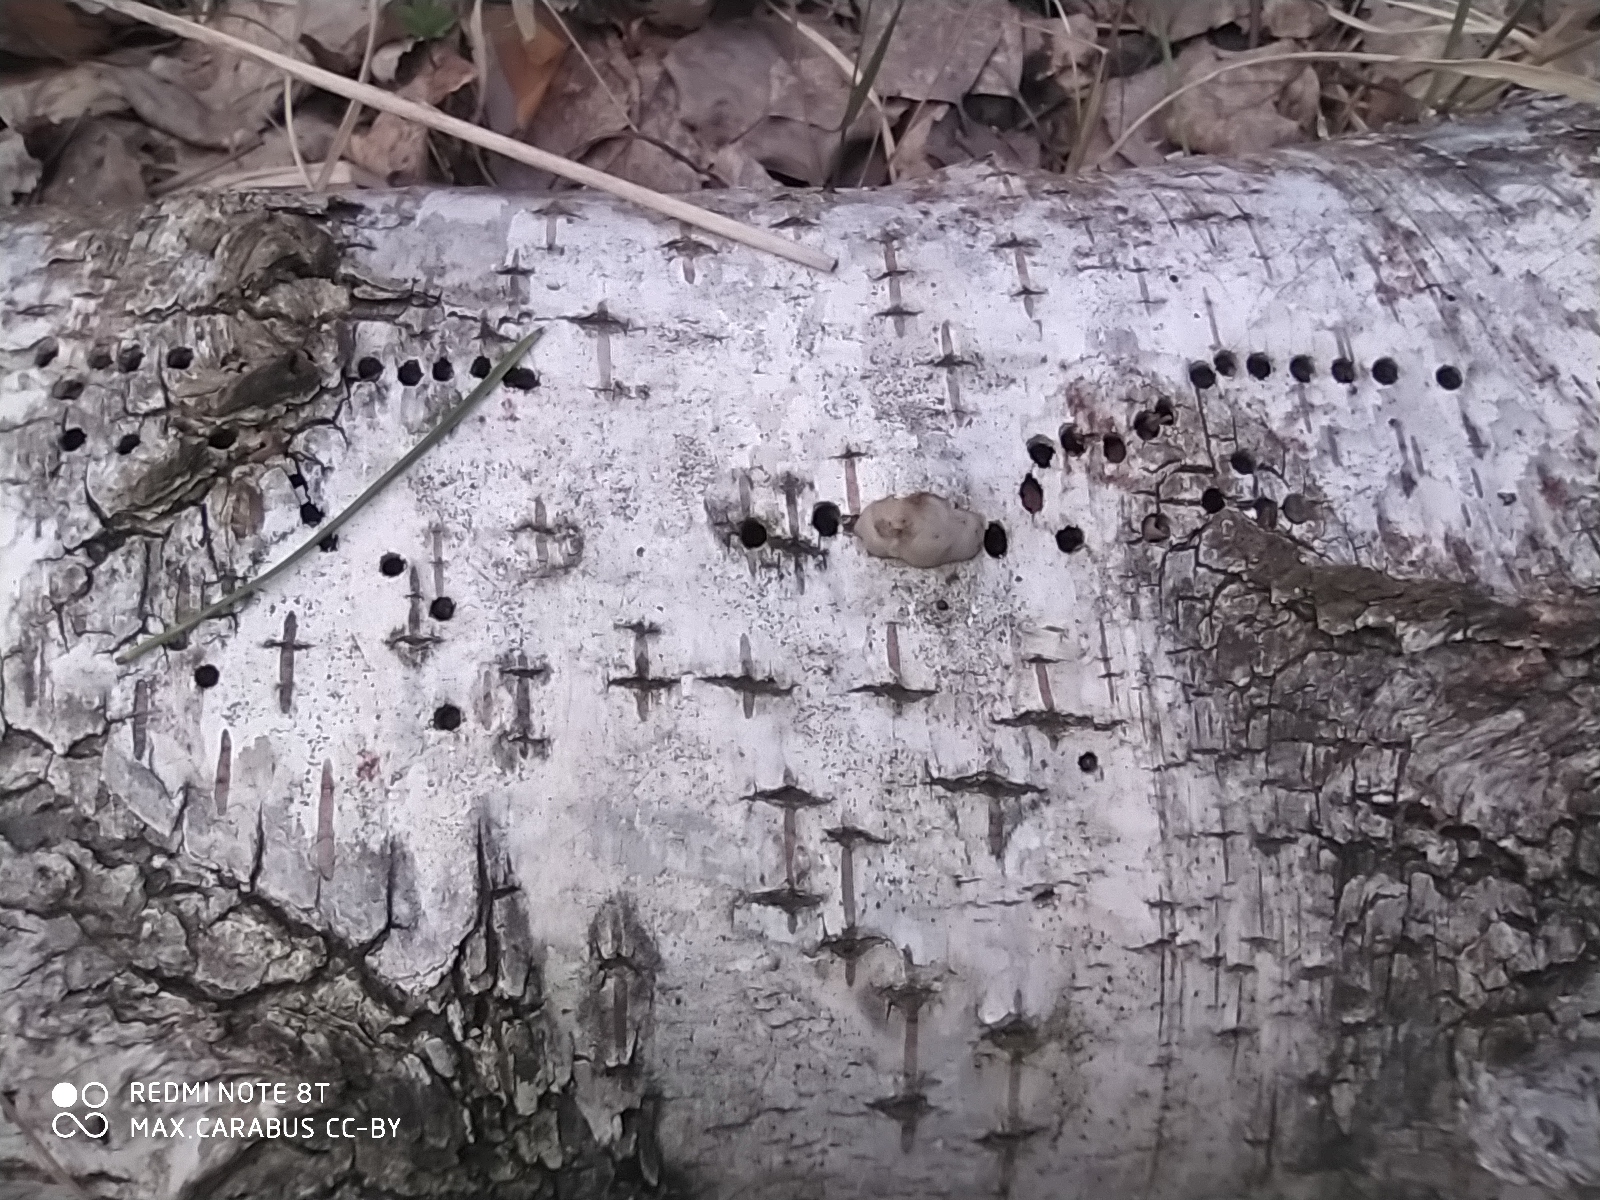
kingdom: Animalia
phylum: Arthropoda
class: Insecta
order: Coleoptera
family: Curculionidae
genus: Scolytus
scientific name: Scolytus ratzeburgii
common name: Birch bark beetle
